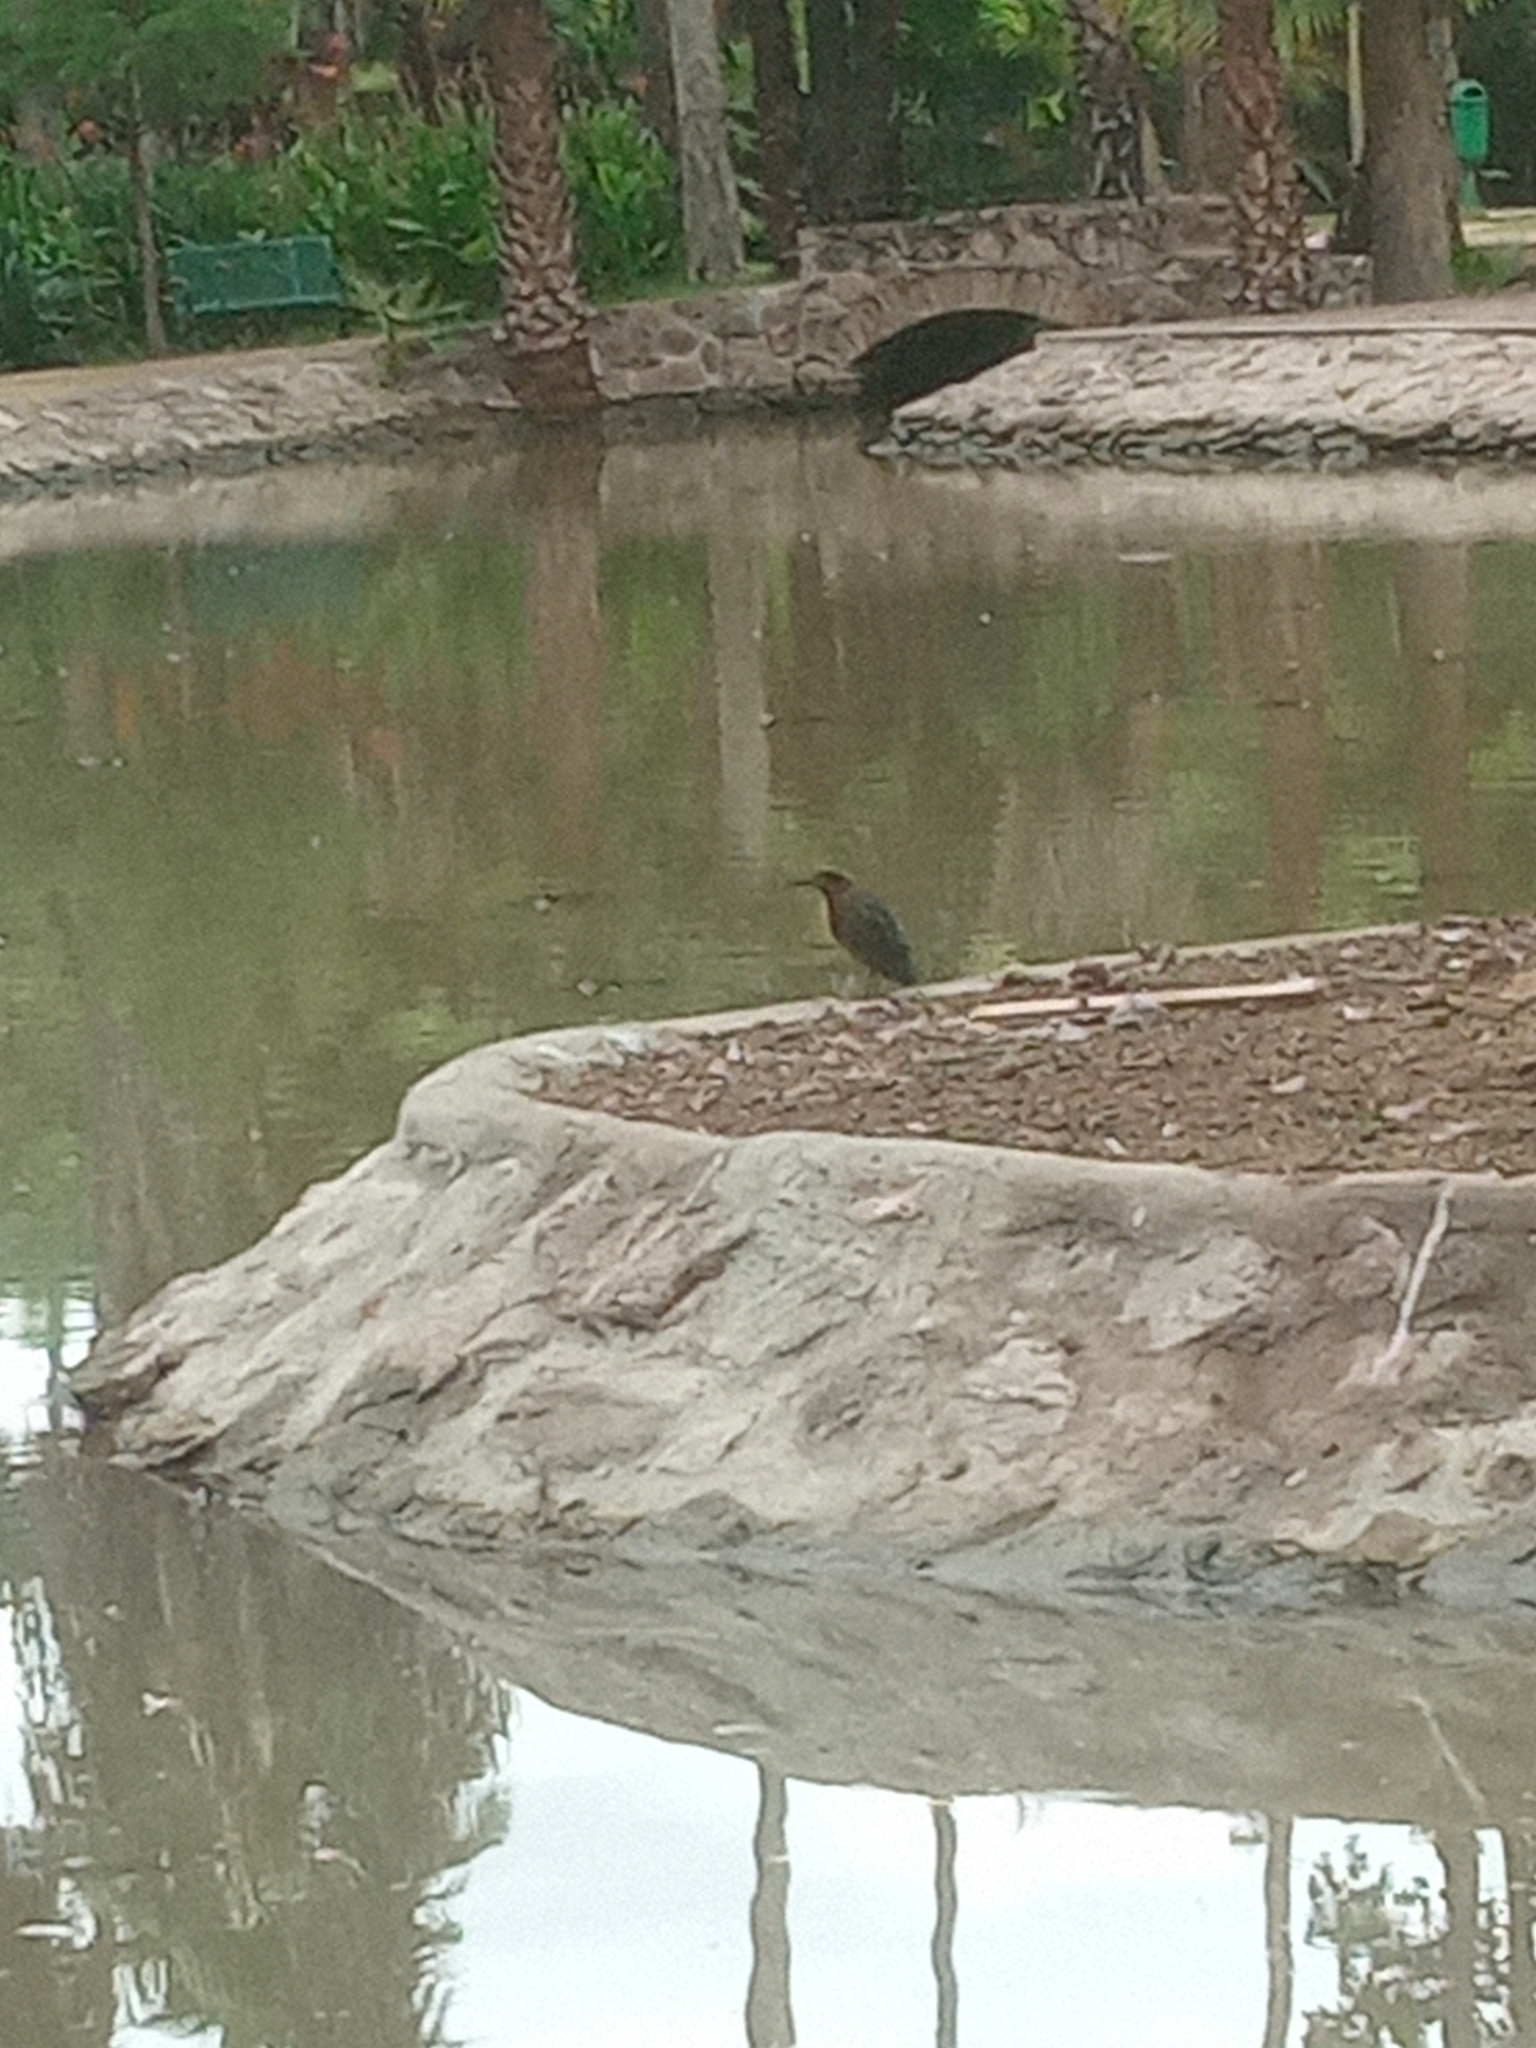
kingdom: Animalia
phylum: Chordata
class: Aves
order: Pelecaniformes
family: Ardeidae
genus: Butorides
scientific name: Butorides virescens
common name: Green heron
